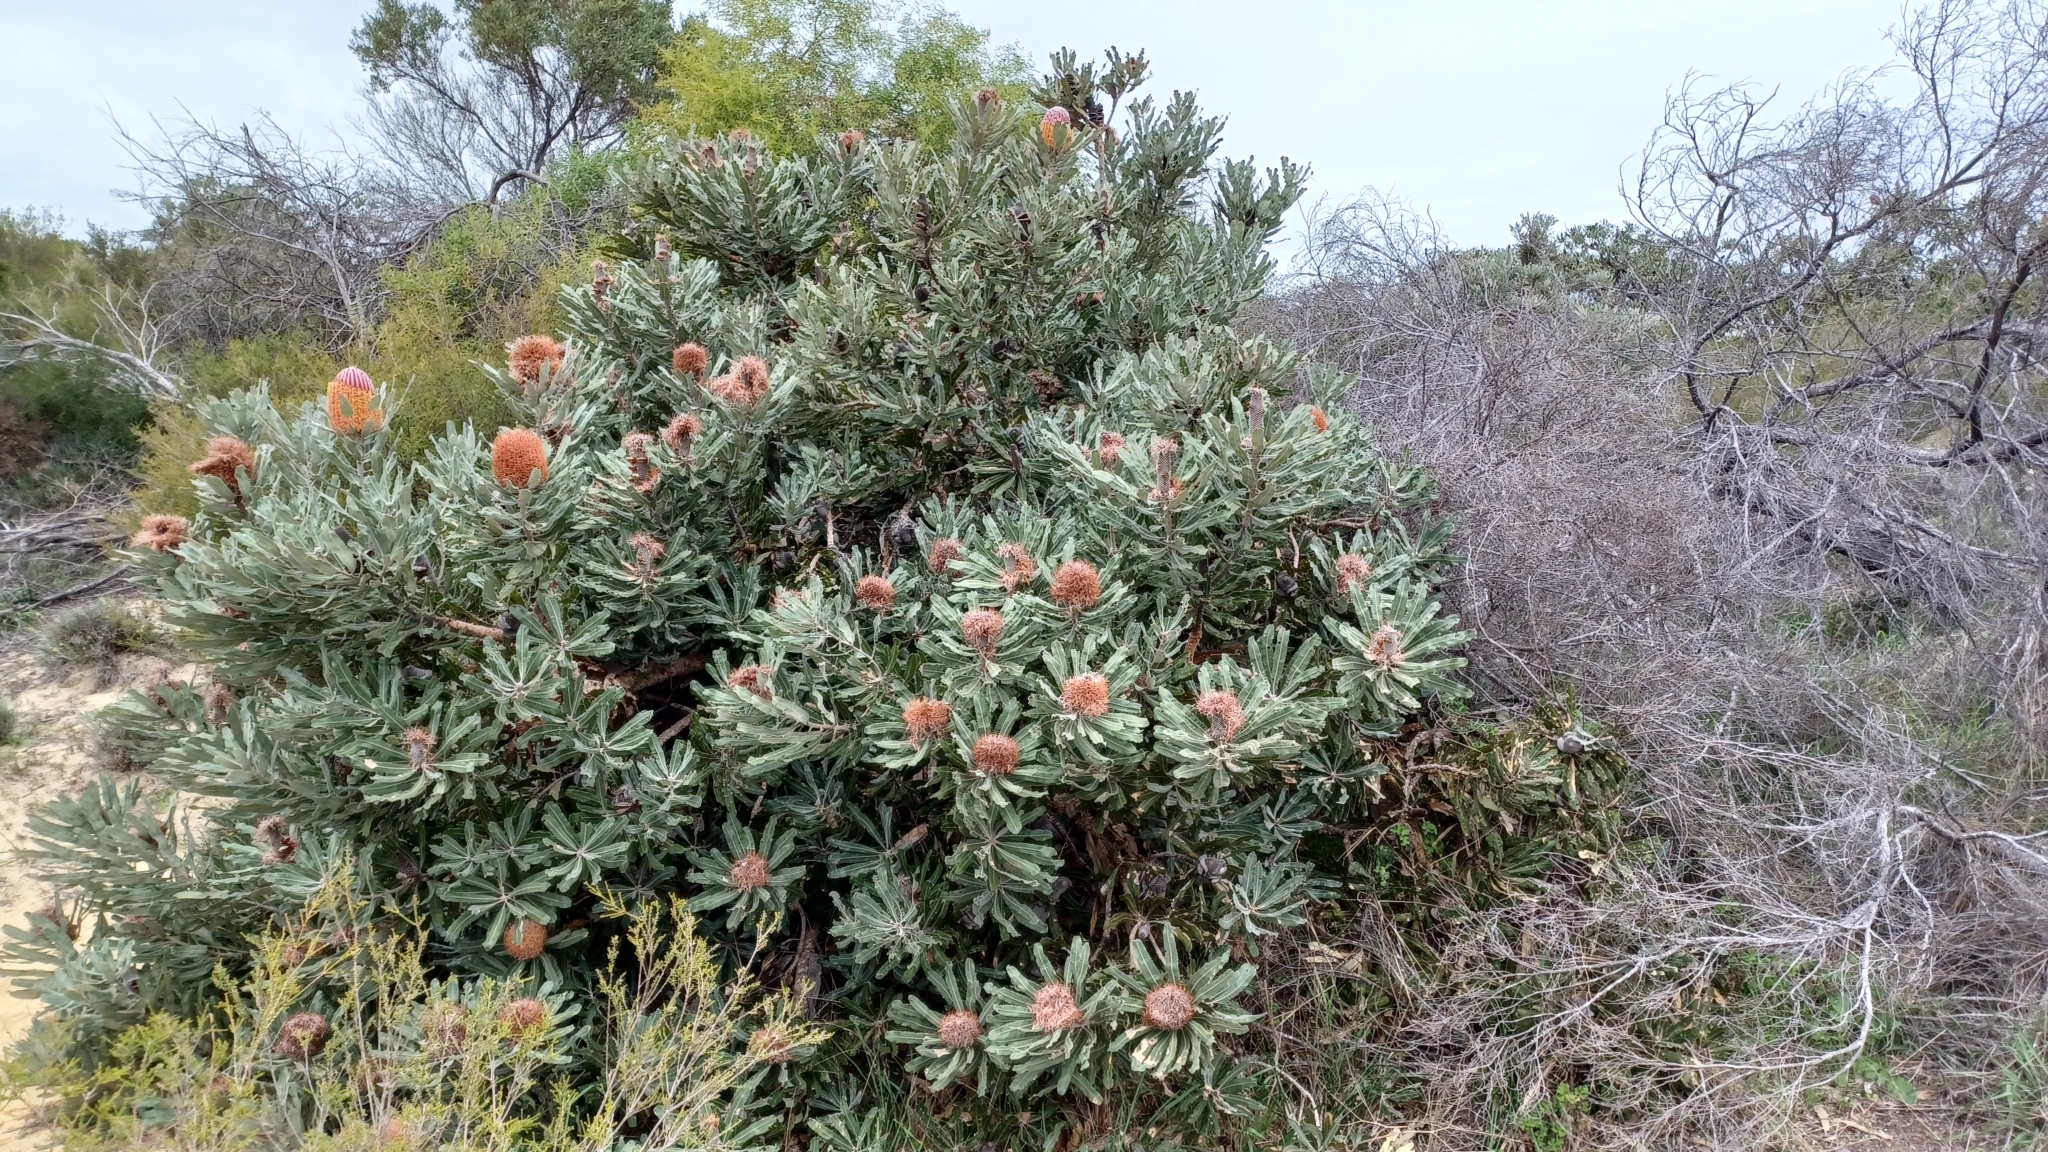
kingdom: Plantae
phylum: Tracheophyta
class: Magnoliopsida
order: Proteales
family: Proteaceae
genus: Banksia
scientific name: Banksia menziesii
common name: Menzie's banksia
